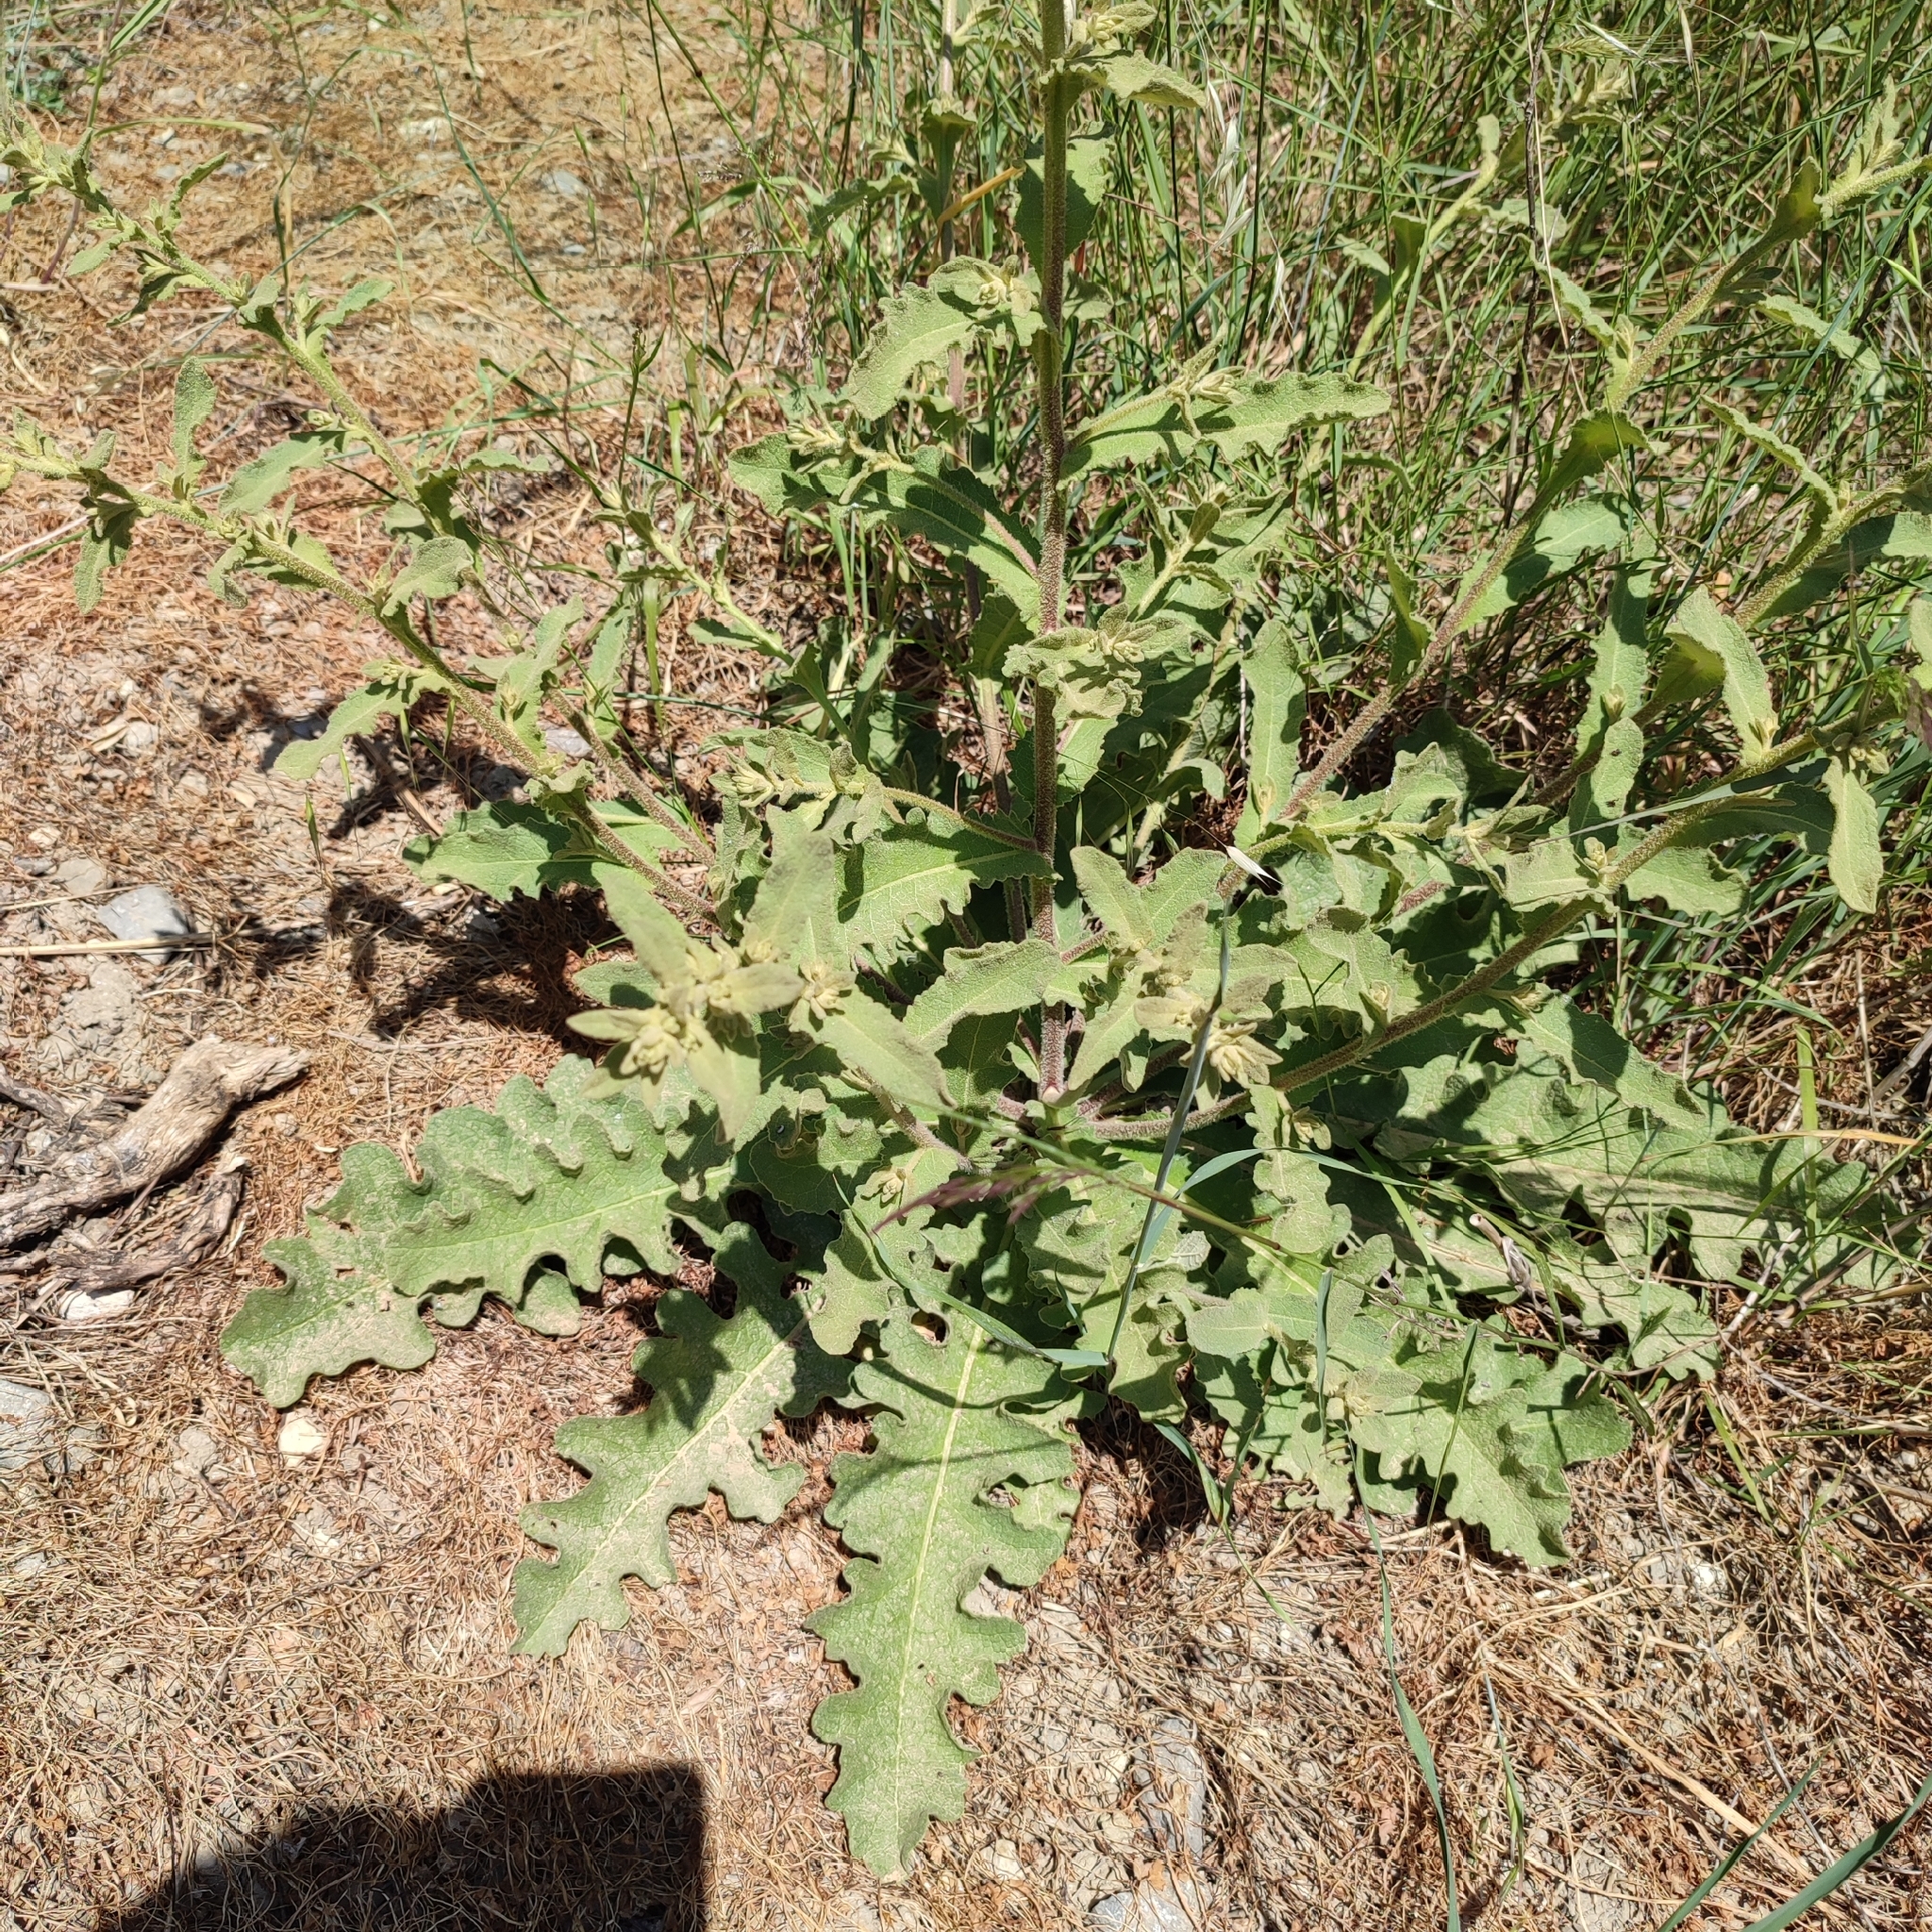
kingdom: Plantae
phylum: Tracheophyta
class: Magnoliopsida
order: Lamiales
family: Scrophulariaceae
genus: Verbascum
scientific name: Verbascum sinuatum
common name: Wavyleaf mullein
